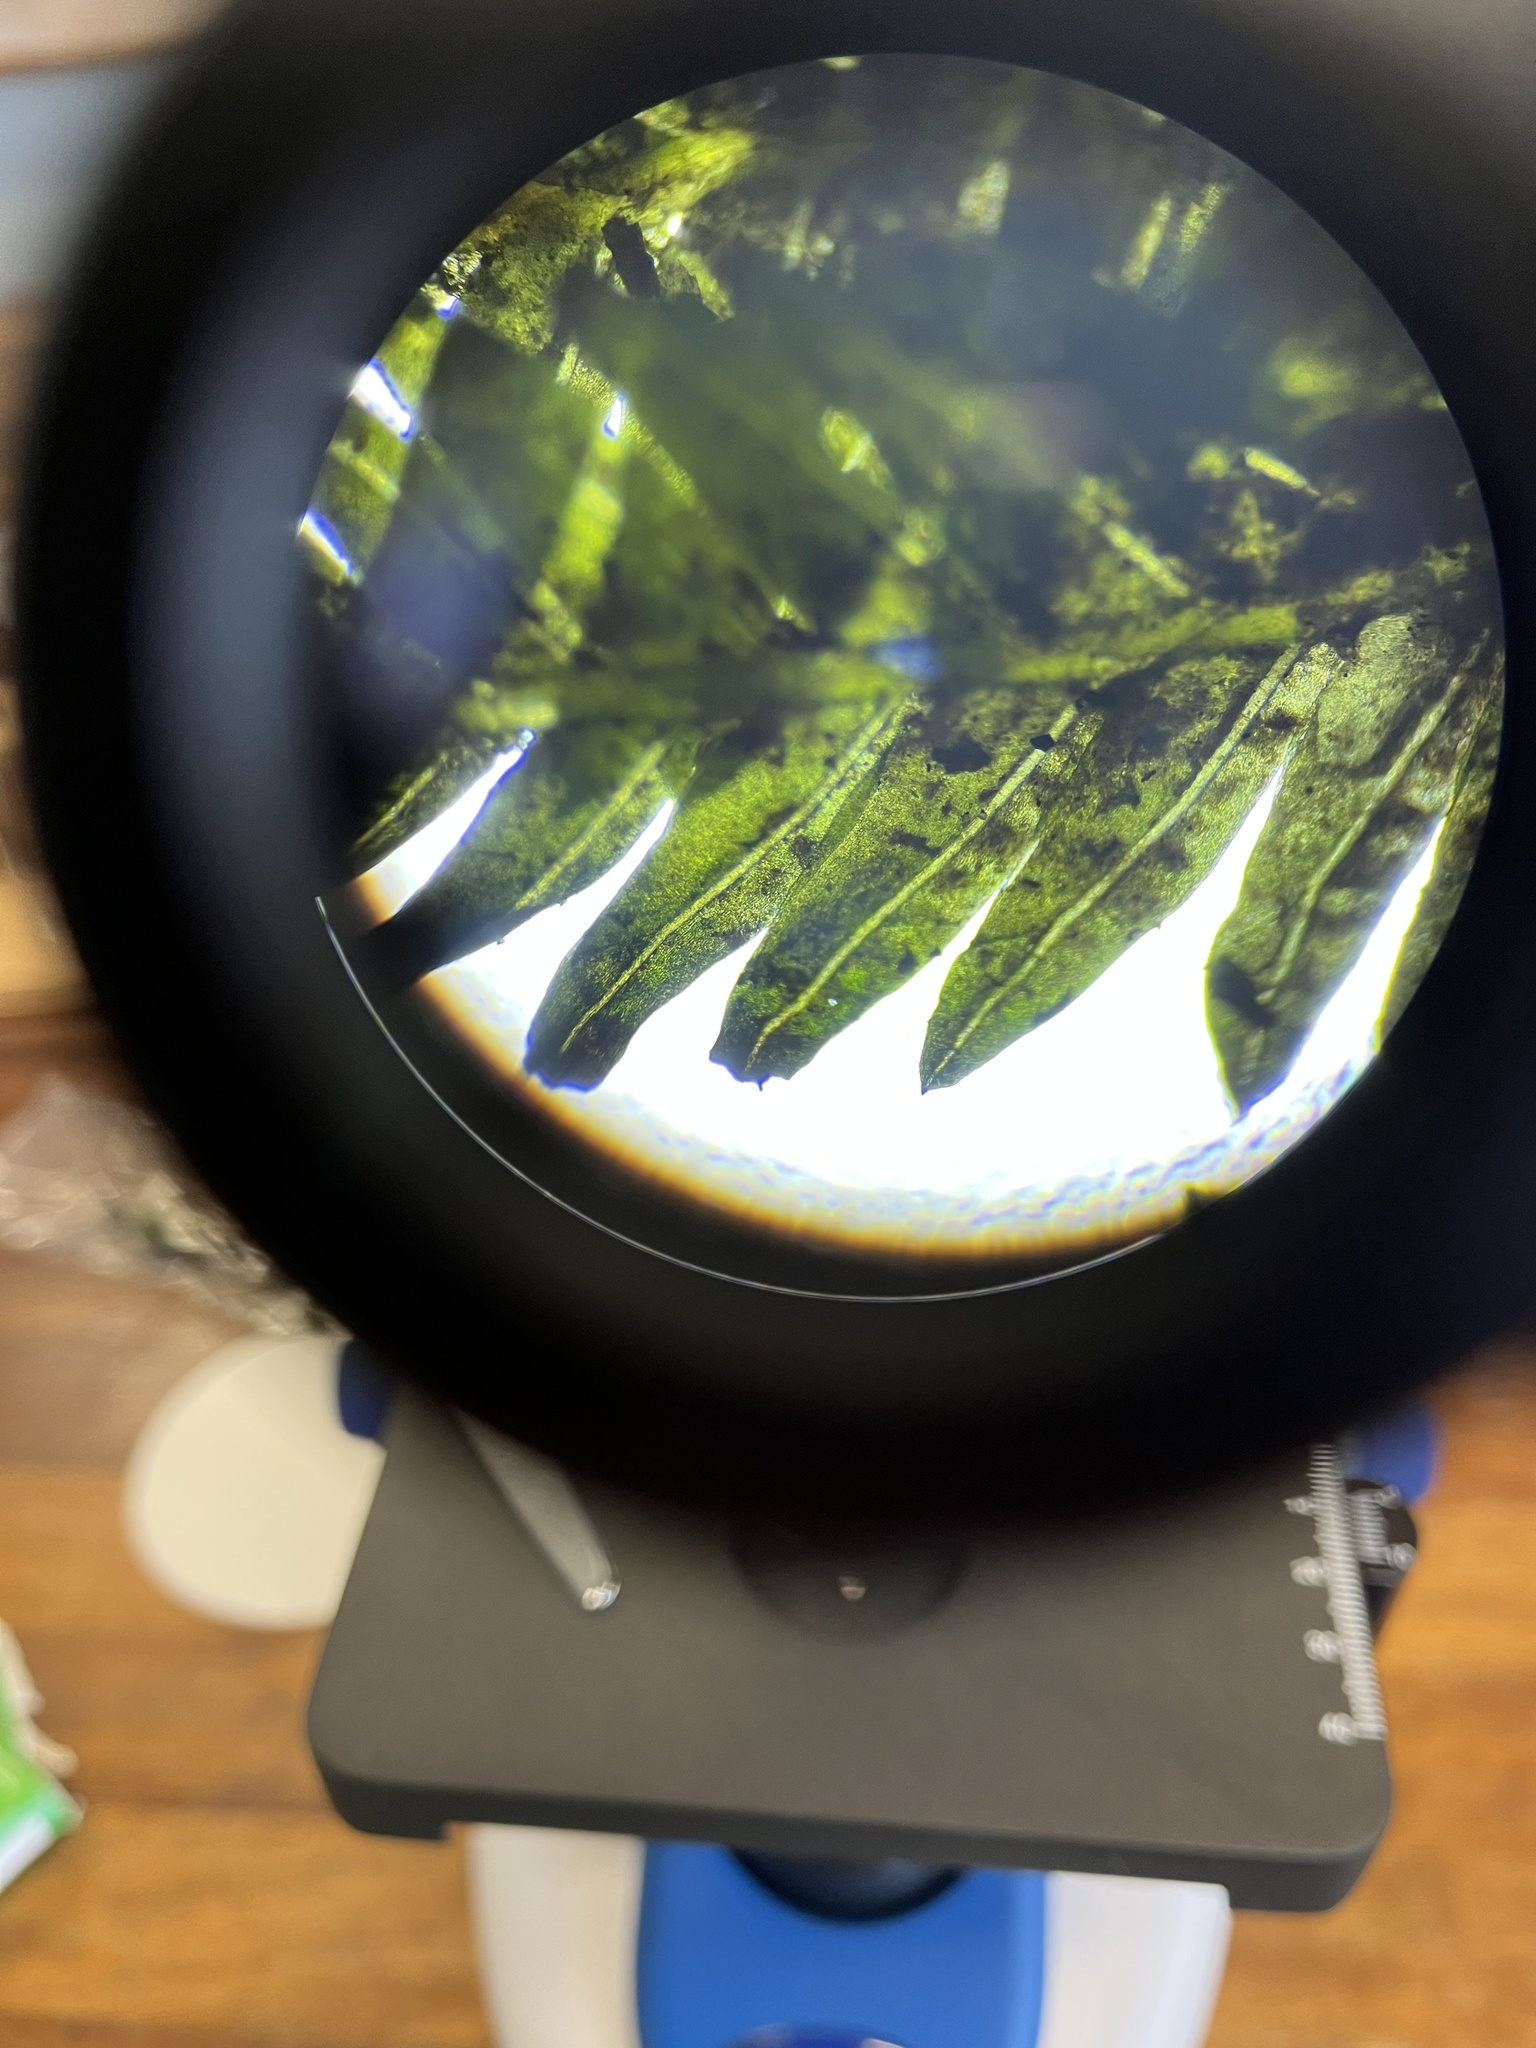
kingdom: Plantae
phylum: Bryophyta
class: Bryopsida
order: Dicranales
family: Fissidentaceae
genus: Fissidens
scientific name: Fissidens taxifolius
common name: Yew-leaved pocket moss
